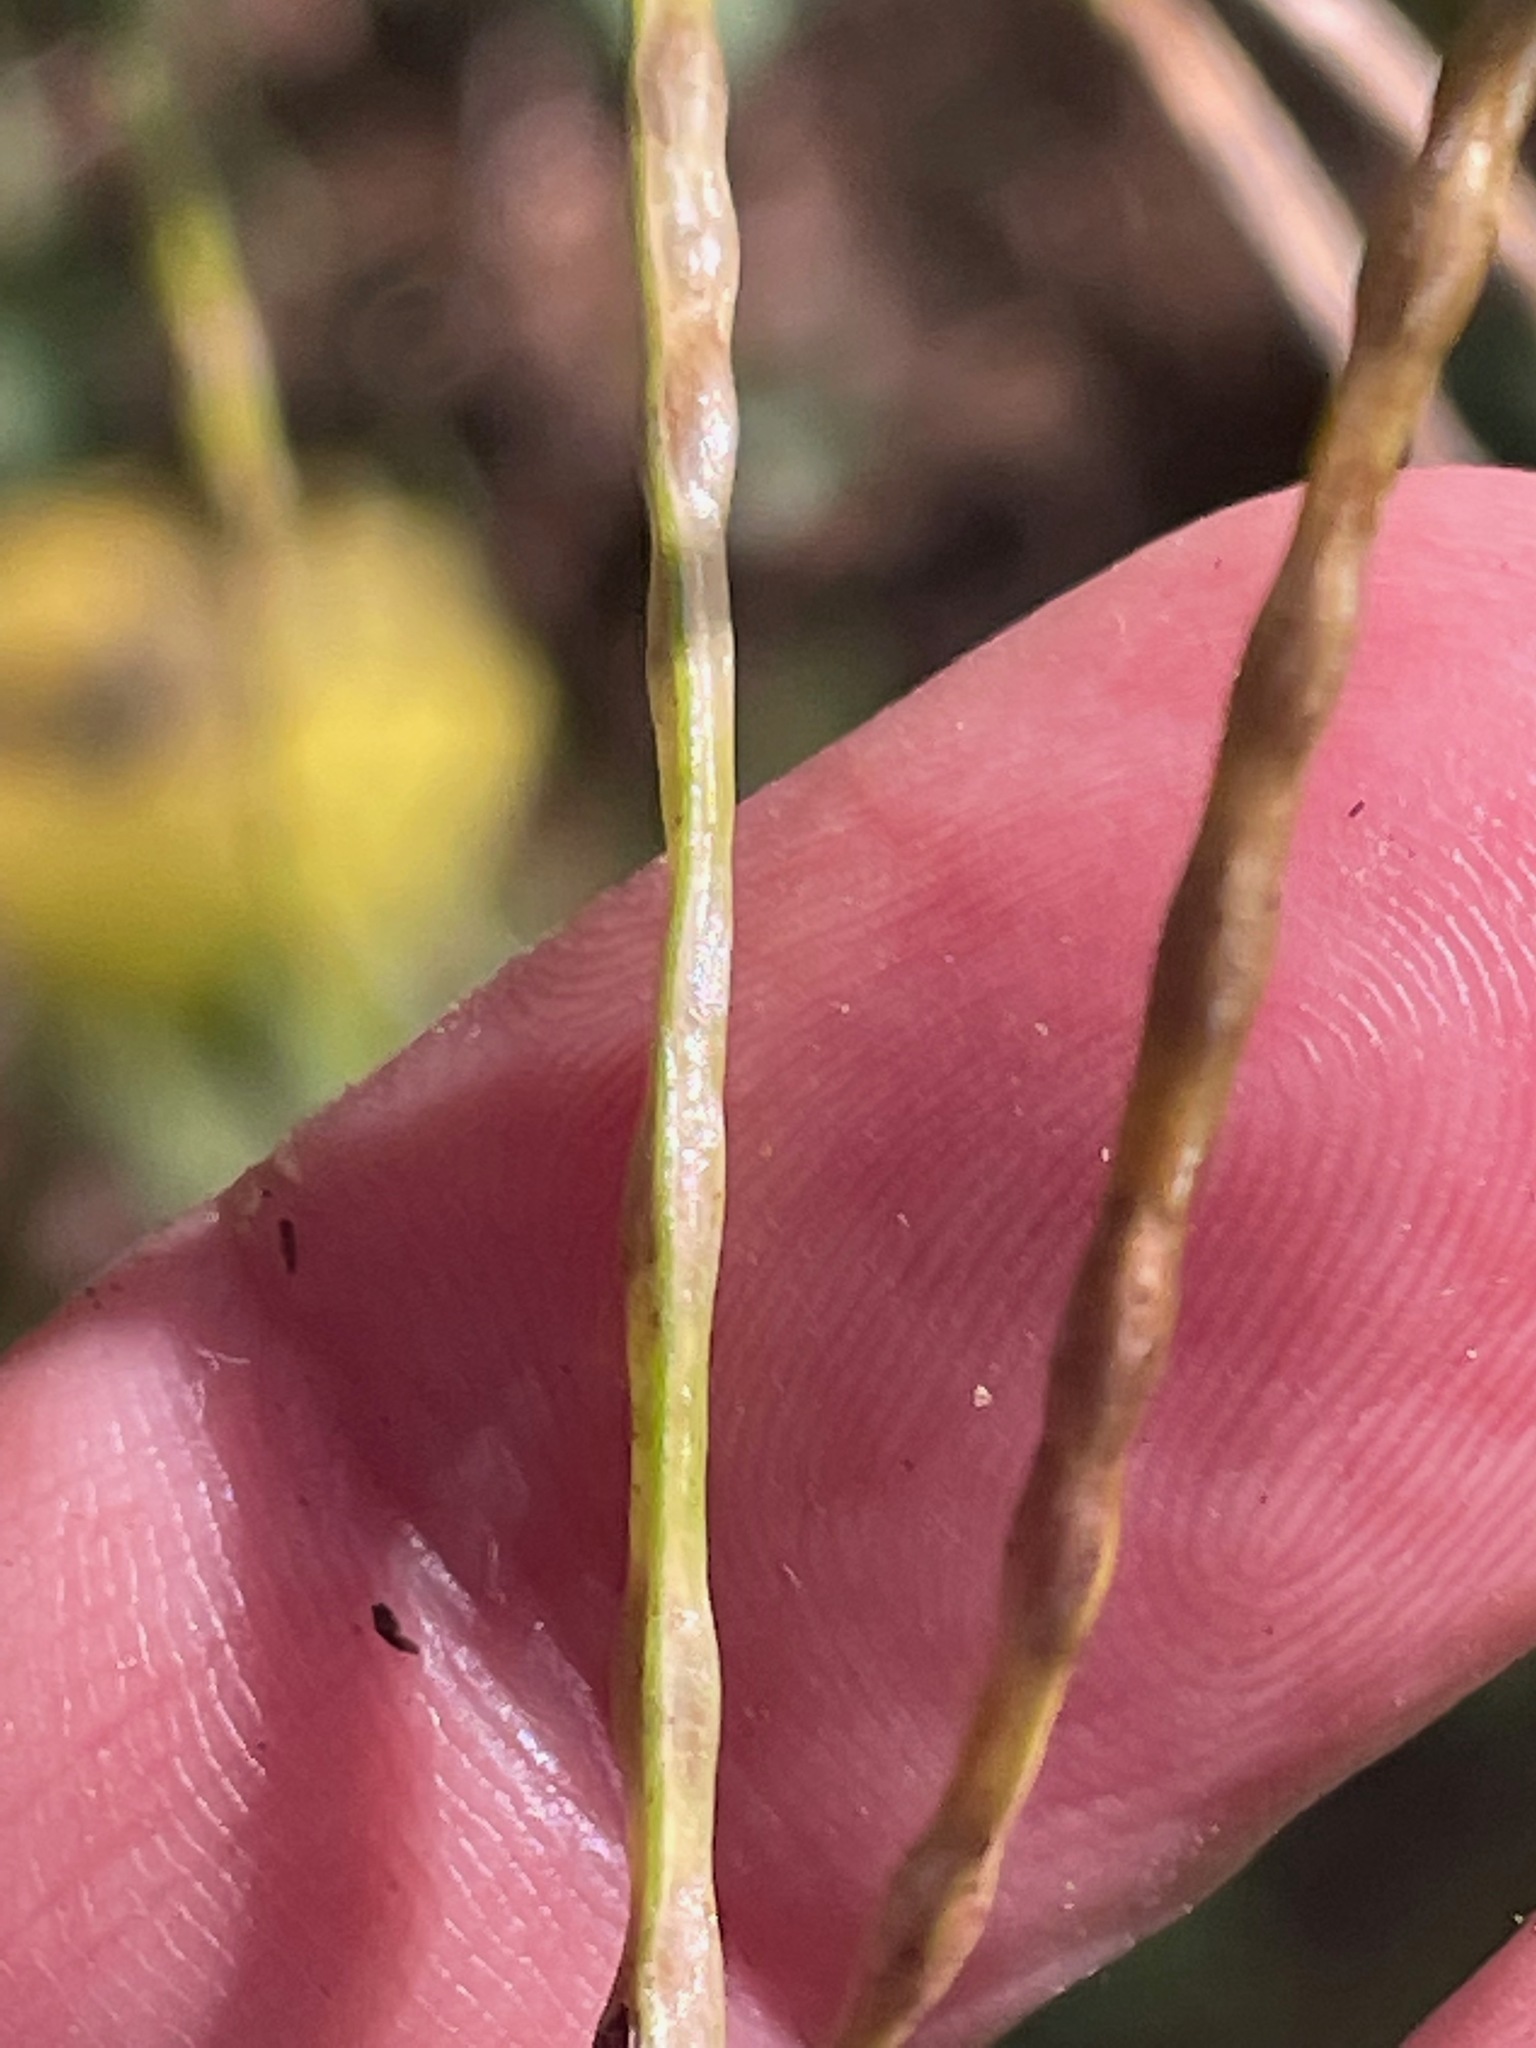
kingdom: Plantae
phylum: Tracheophyta
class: Magnoliopsida
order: Brassicales
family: Brassicaceae
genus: Hesperis
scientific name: Hesperis matronalis
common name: Dame's-violet
